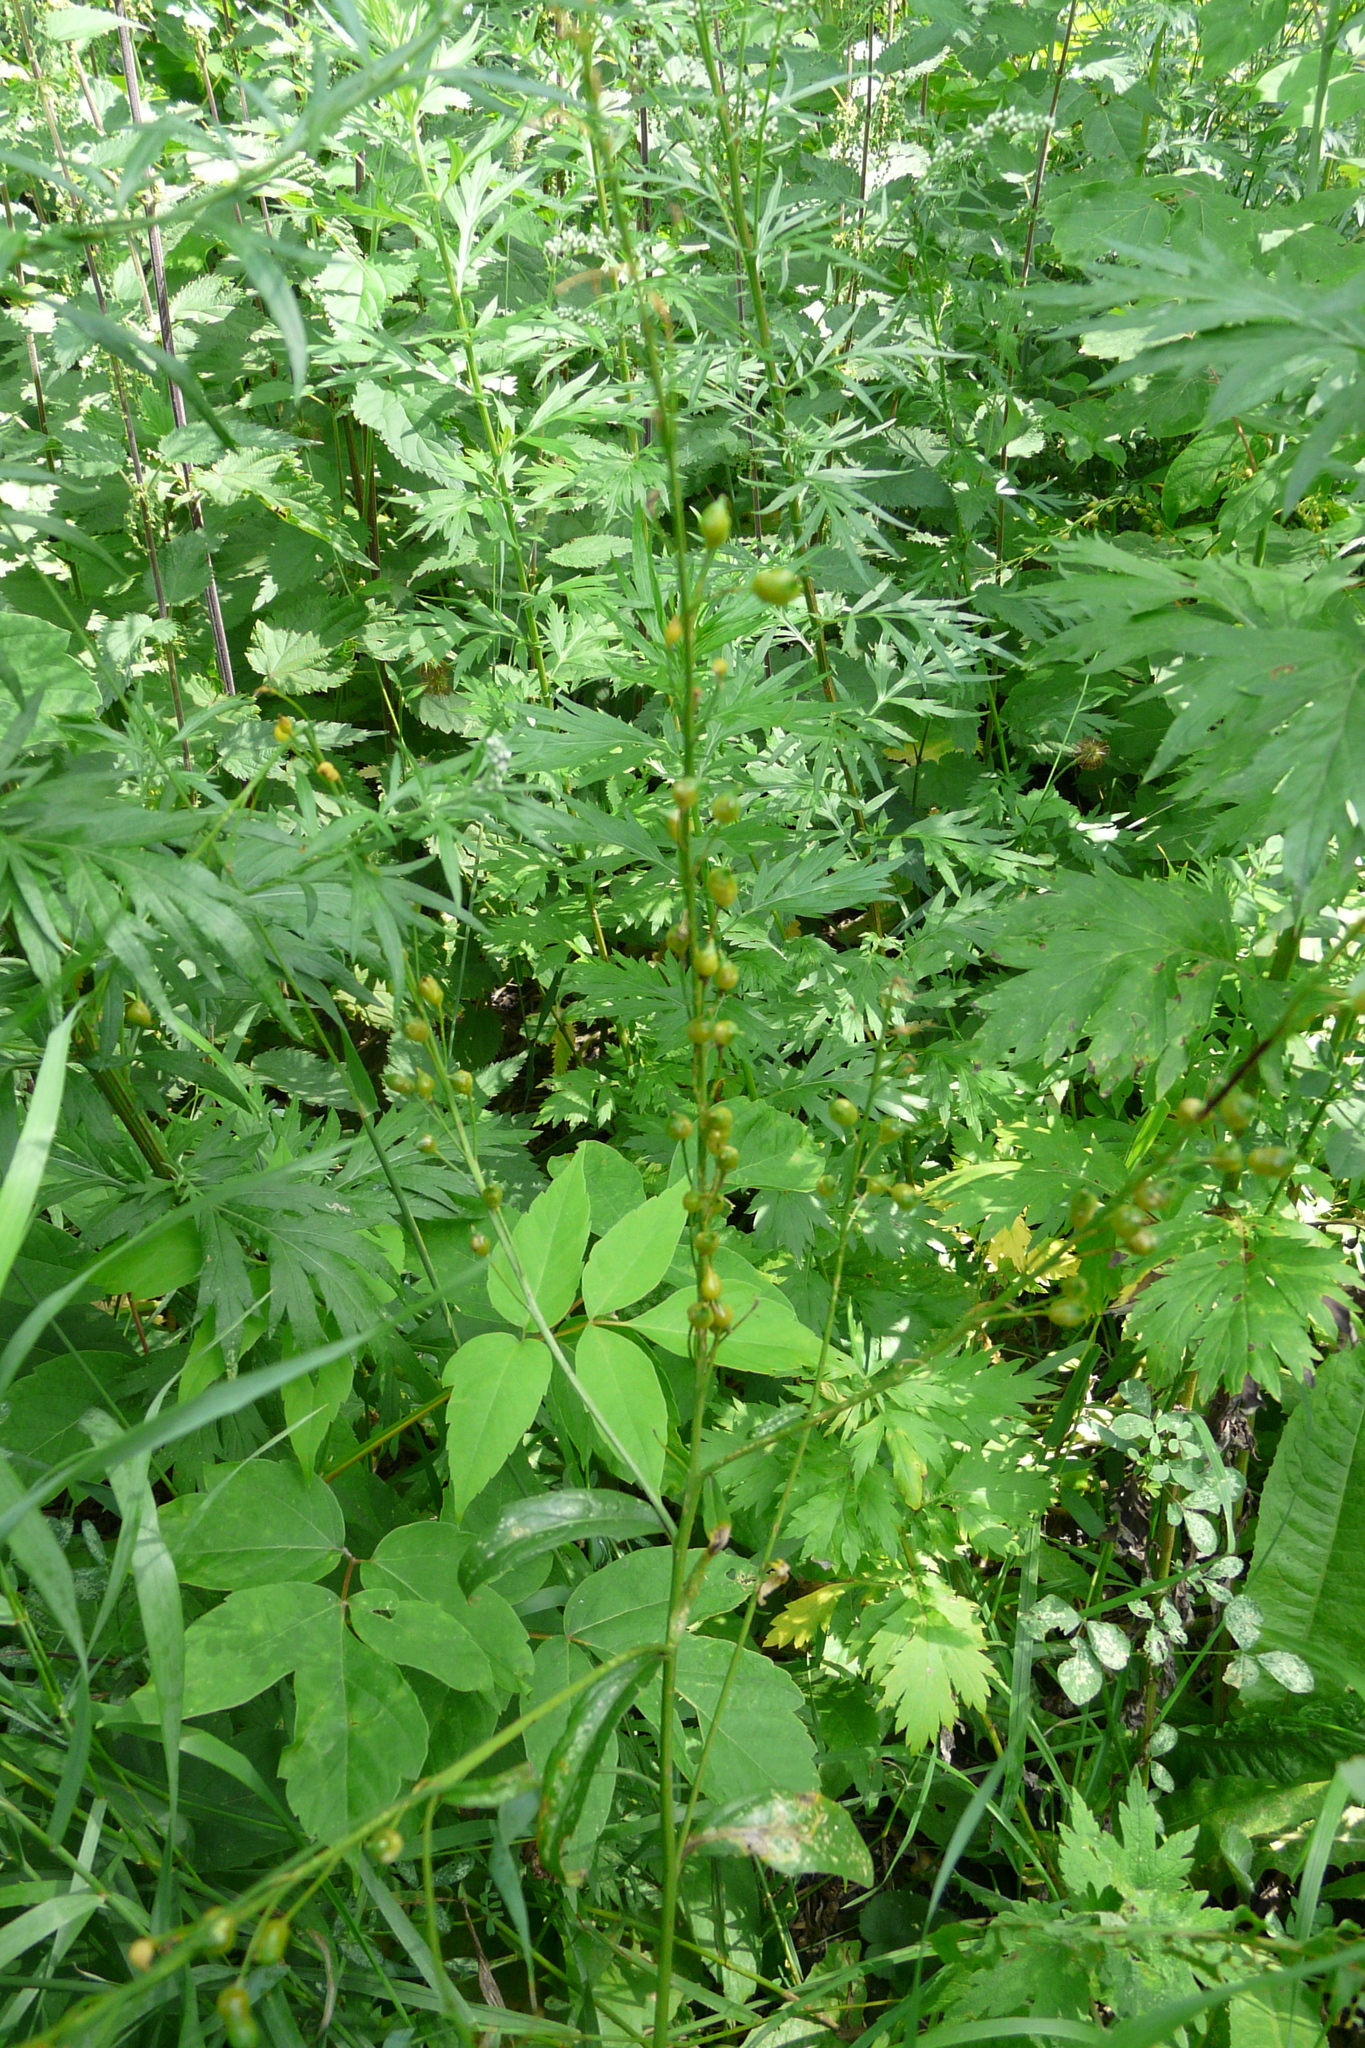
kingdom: Plantae
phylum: Tracheophyta
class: Magnoliopsida
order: Brassicales
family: Brassicaceae
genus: Bunias
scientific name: Bunias orientalis
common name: Warty-cabbage
